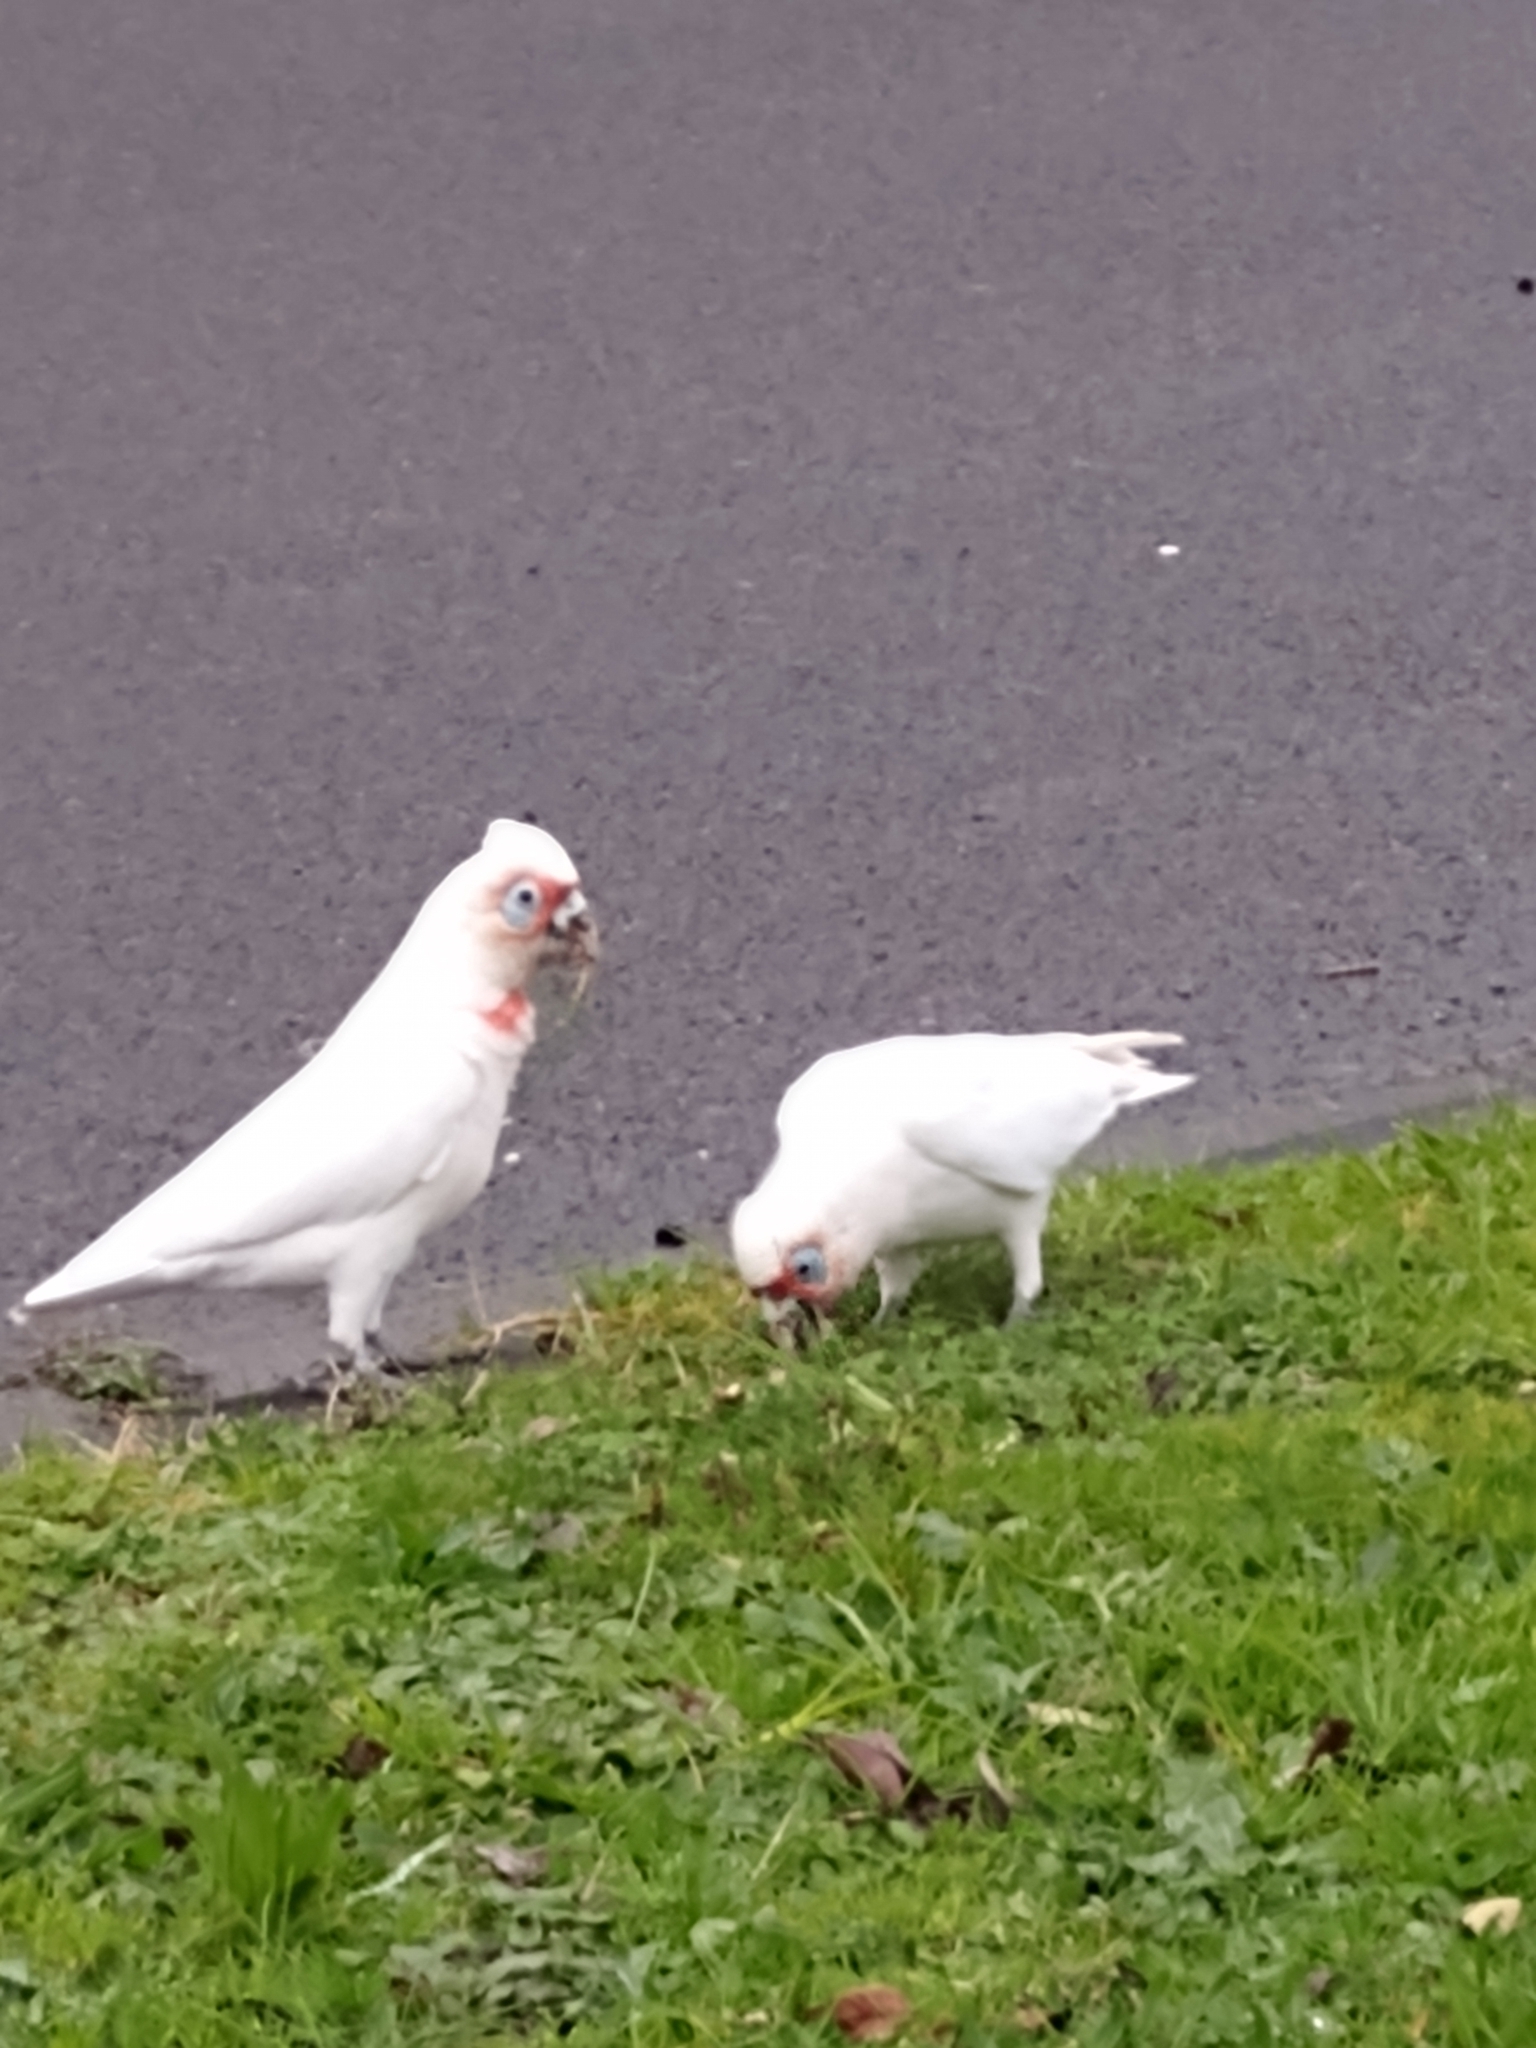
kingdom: Animalia
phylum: Chordata
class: Aves
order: Psittaciformes
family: Psittacidae
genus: Cacatua
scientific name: Cacatua tenuirostris
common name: Long-billed corella
